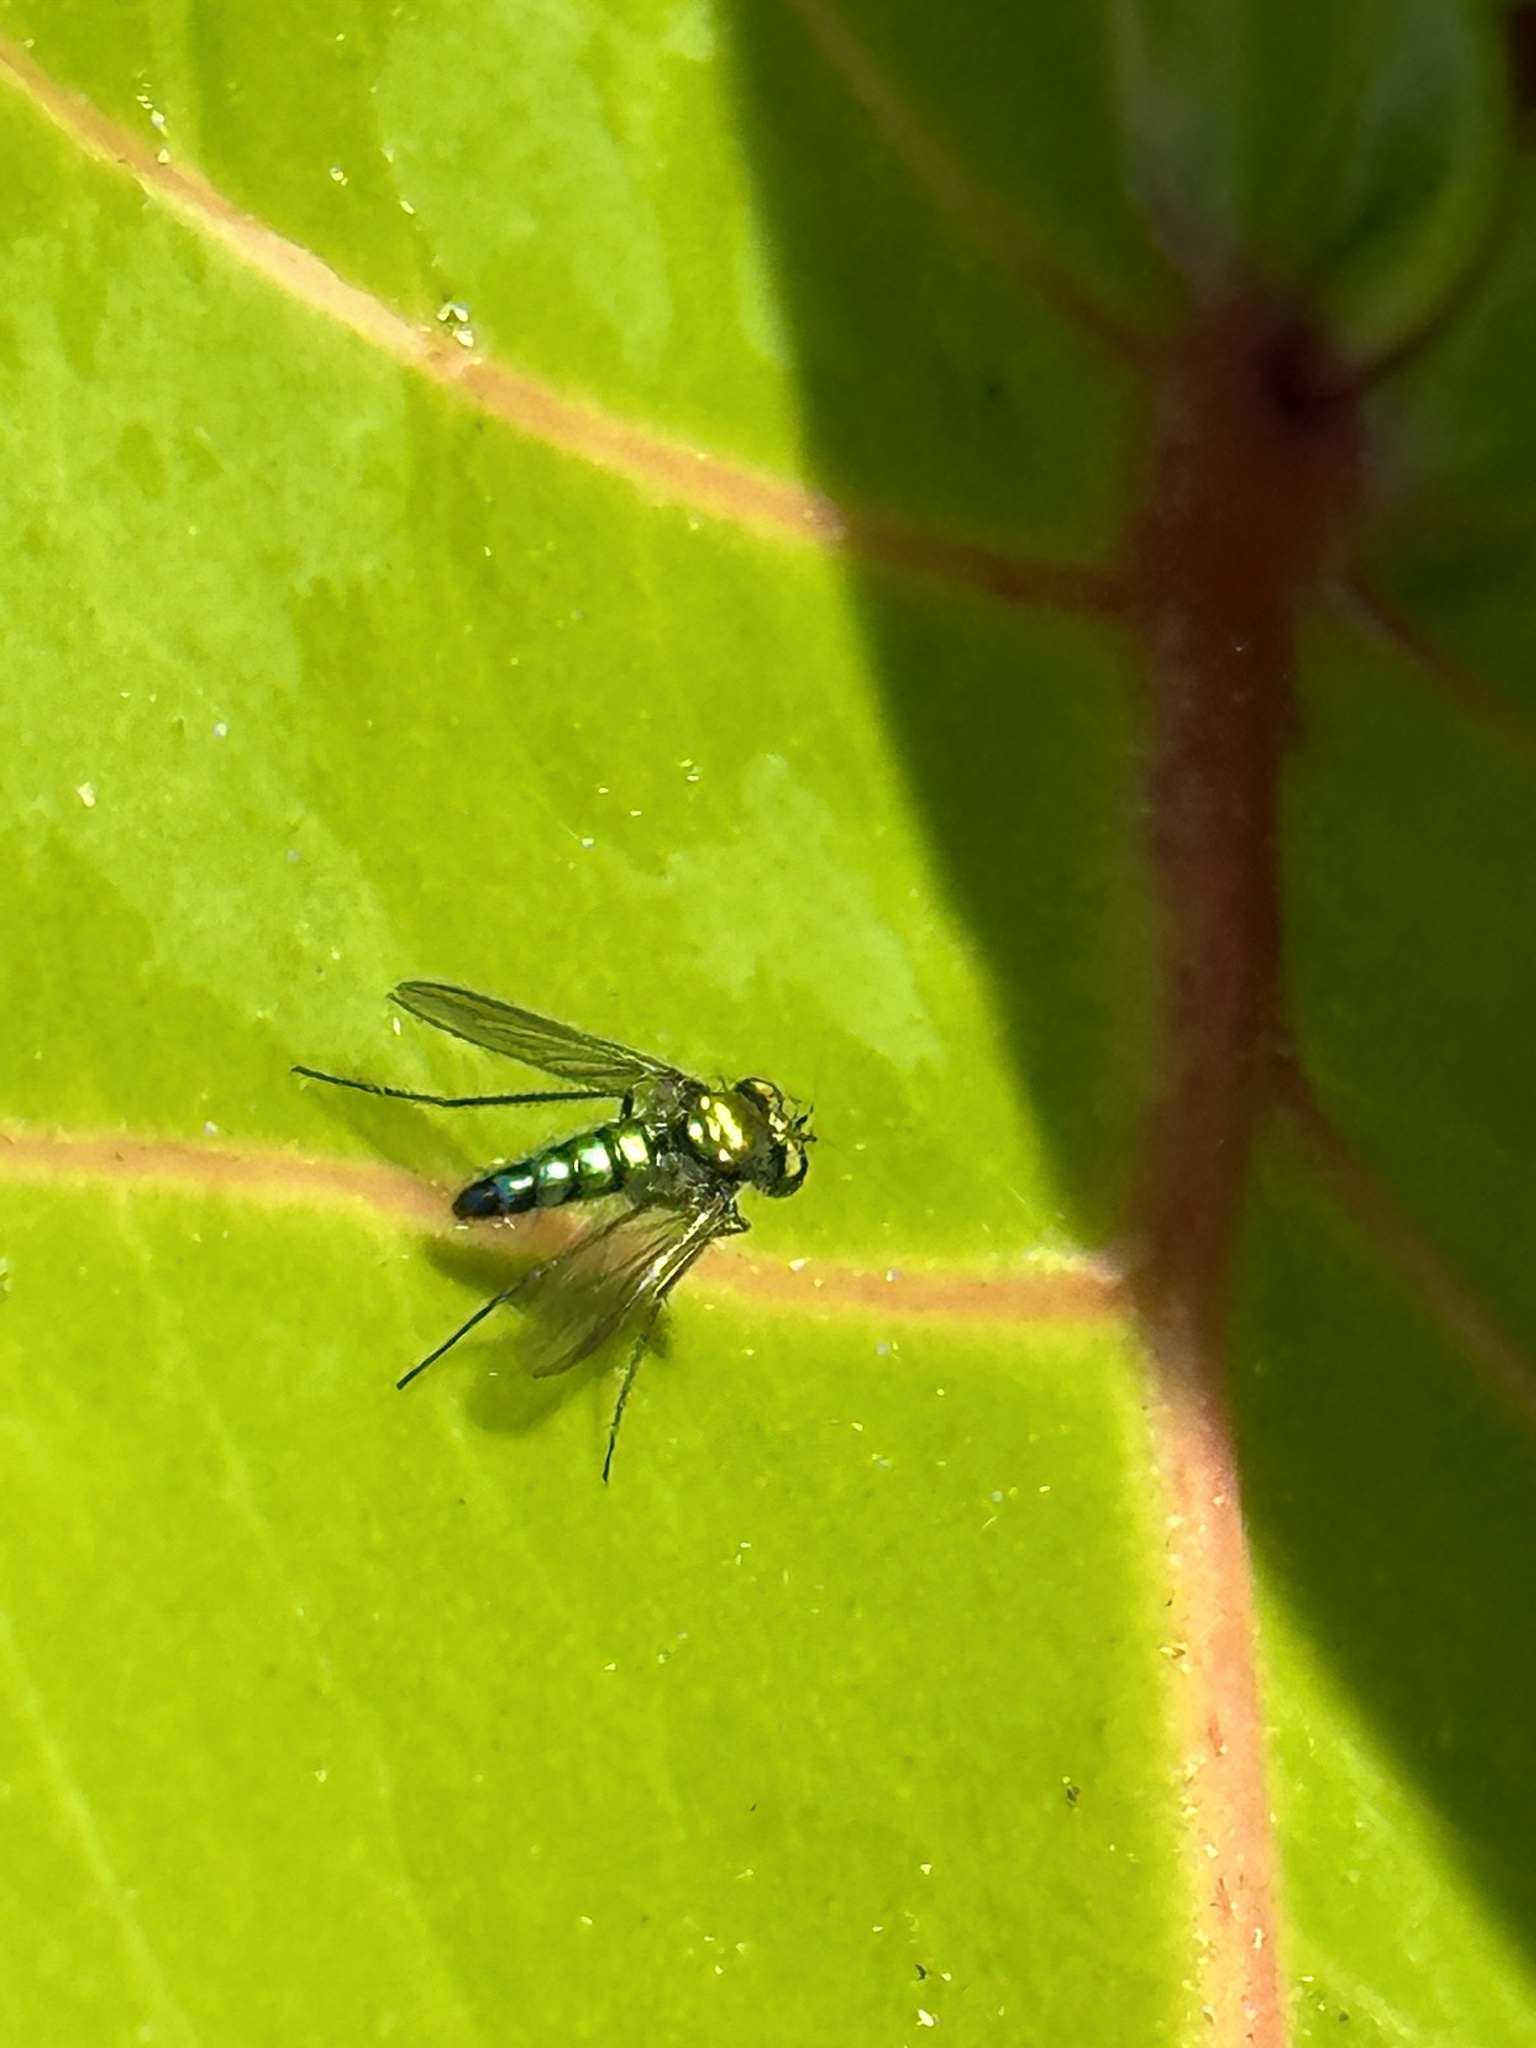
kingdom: Animalia
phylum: Arthropoda
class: Insecta
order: Diptera
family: Dolichopodidae
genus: Condylostylus
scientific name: Condylostylus longicornis
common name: Long-legged fly
